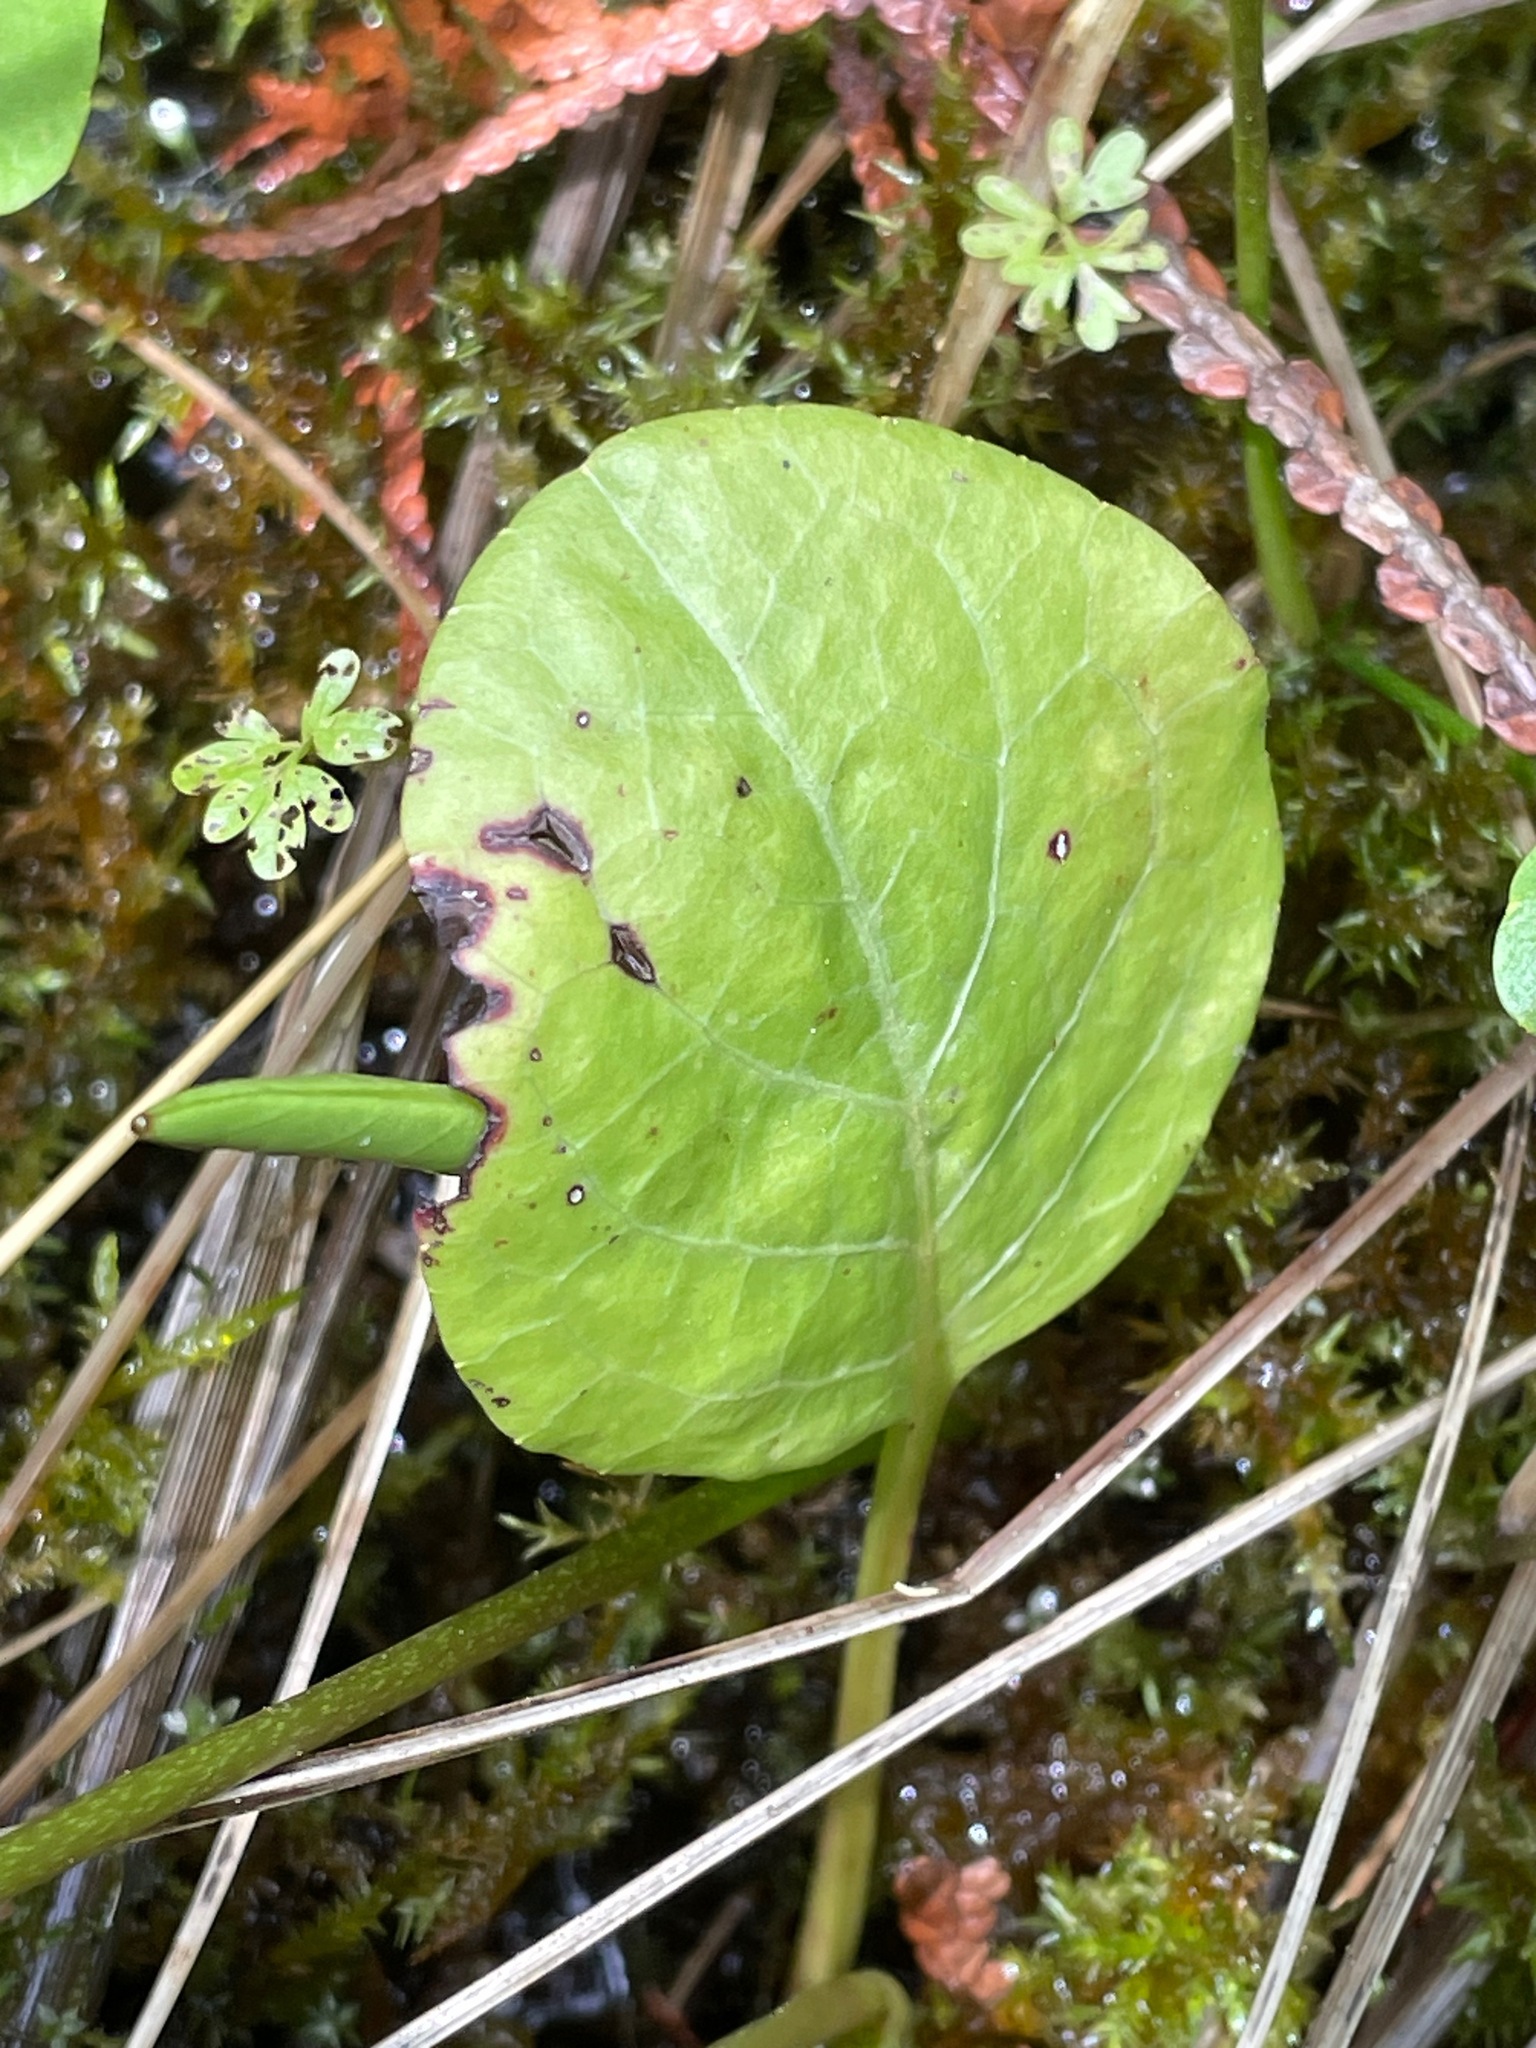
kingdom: Plantae
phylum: Tracheophyta
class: Magnoliopsida
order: Ericales
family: Ericaceae
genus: Pyrola
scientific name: Pyrola asarifolia
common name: Bog wintergreen
